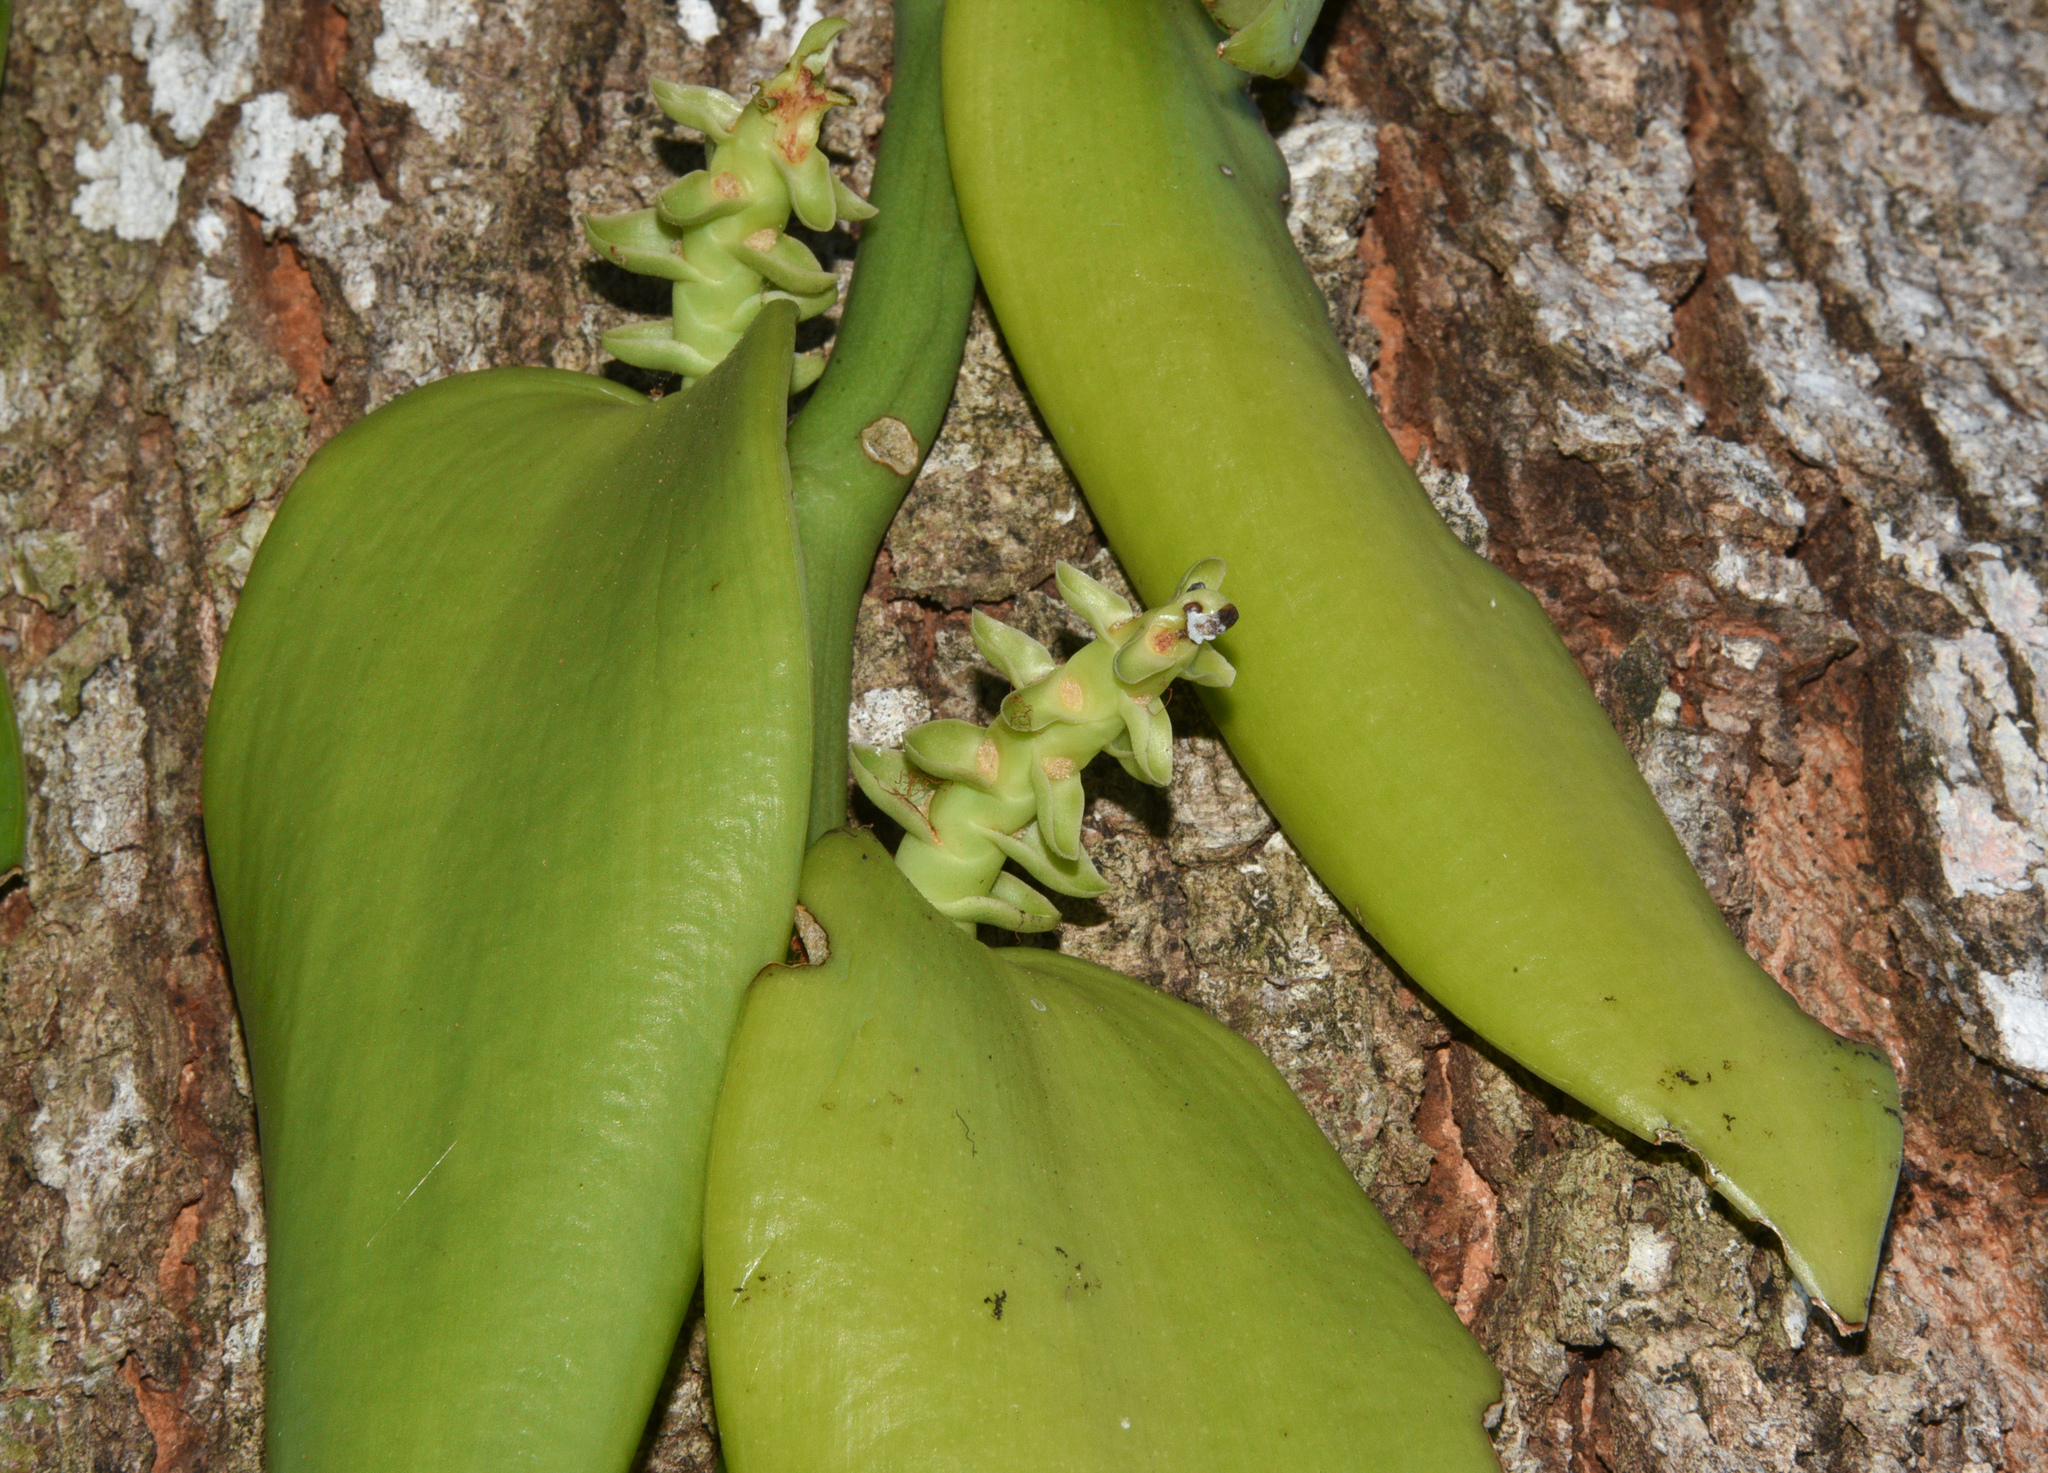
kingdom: Plantae
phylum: Tracheophyta
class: Liliopsida
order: Asparagales
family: Orchidaceae
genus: Vanilla
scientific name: Vanilla pompona
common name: West indian vanilla
